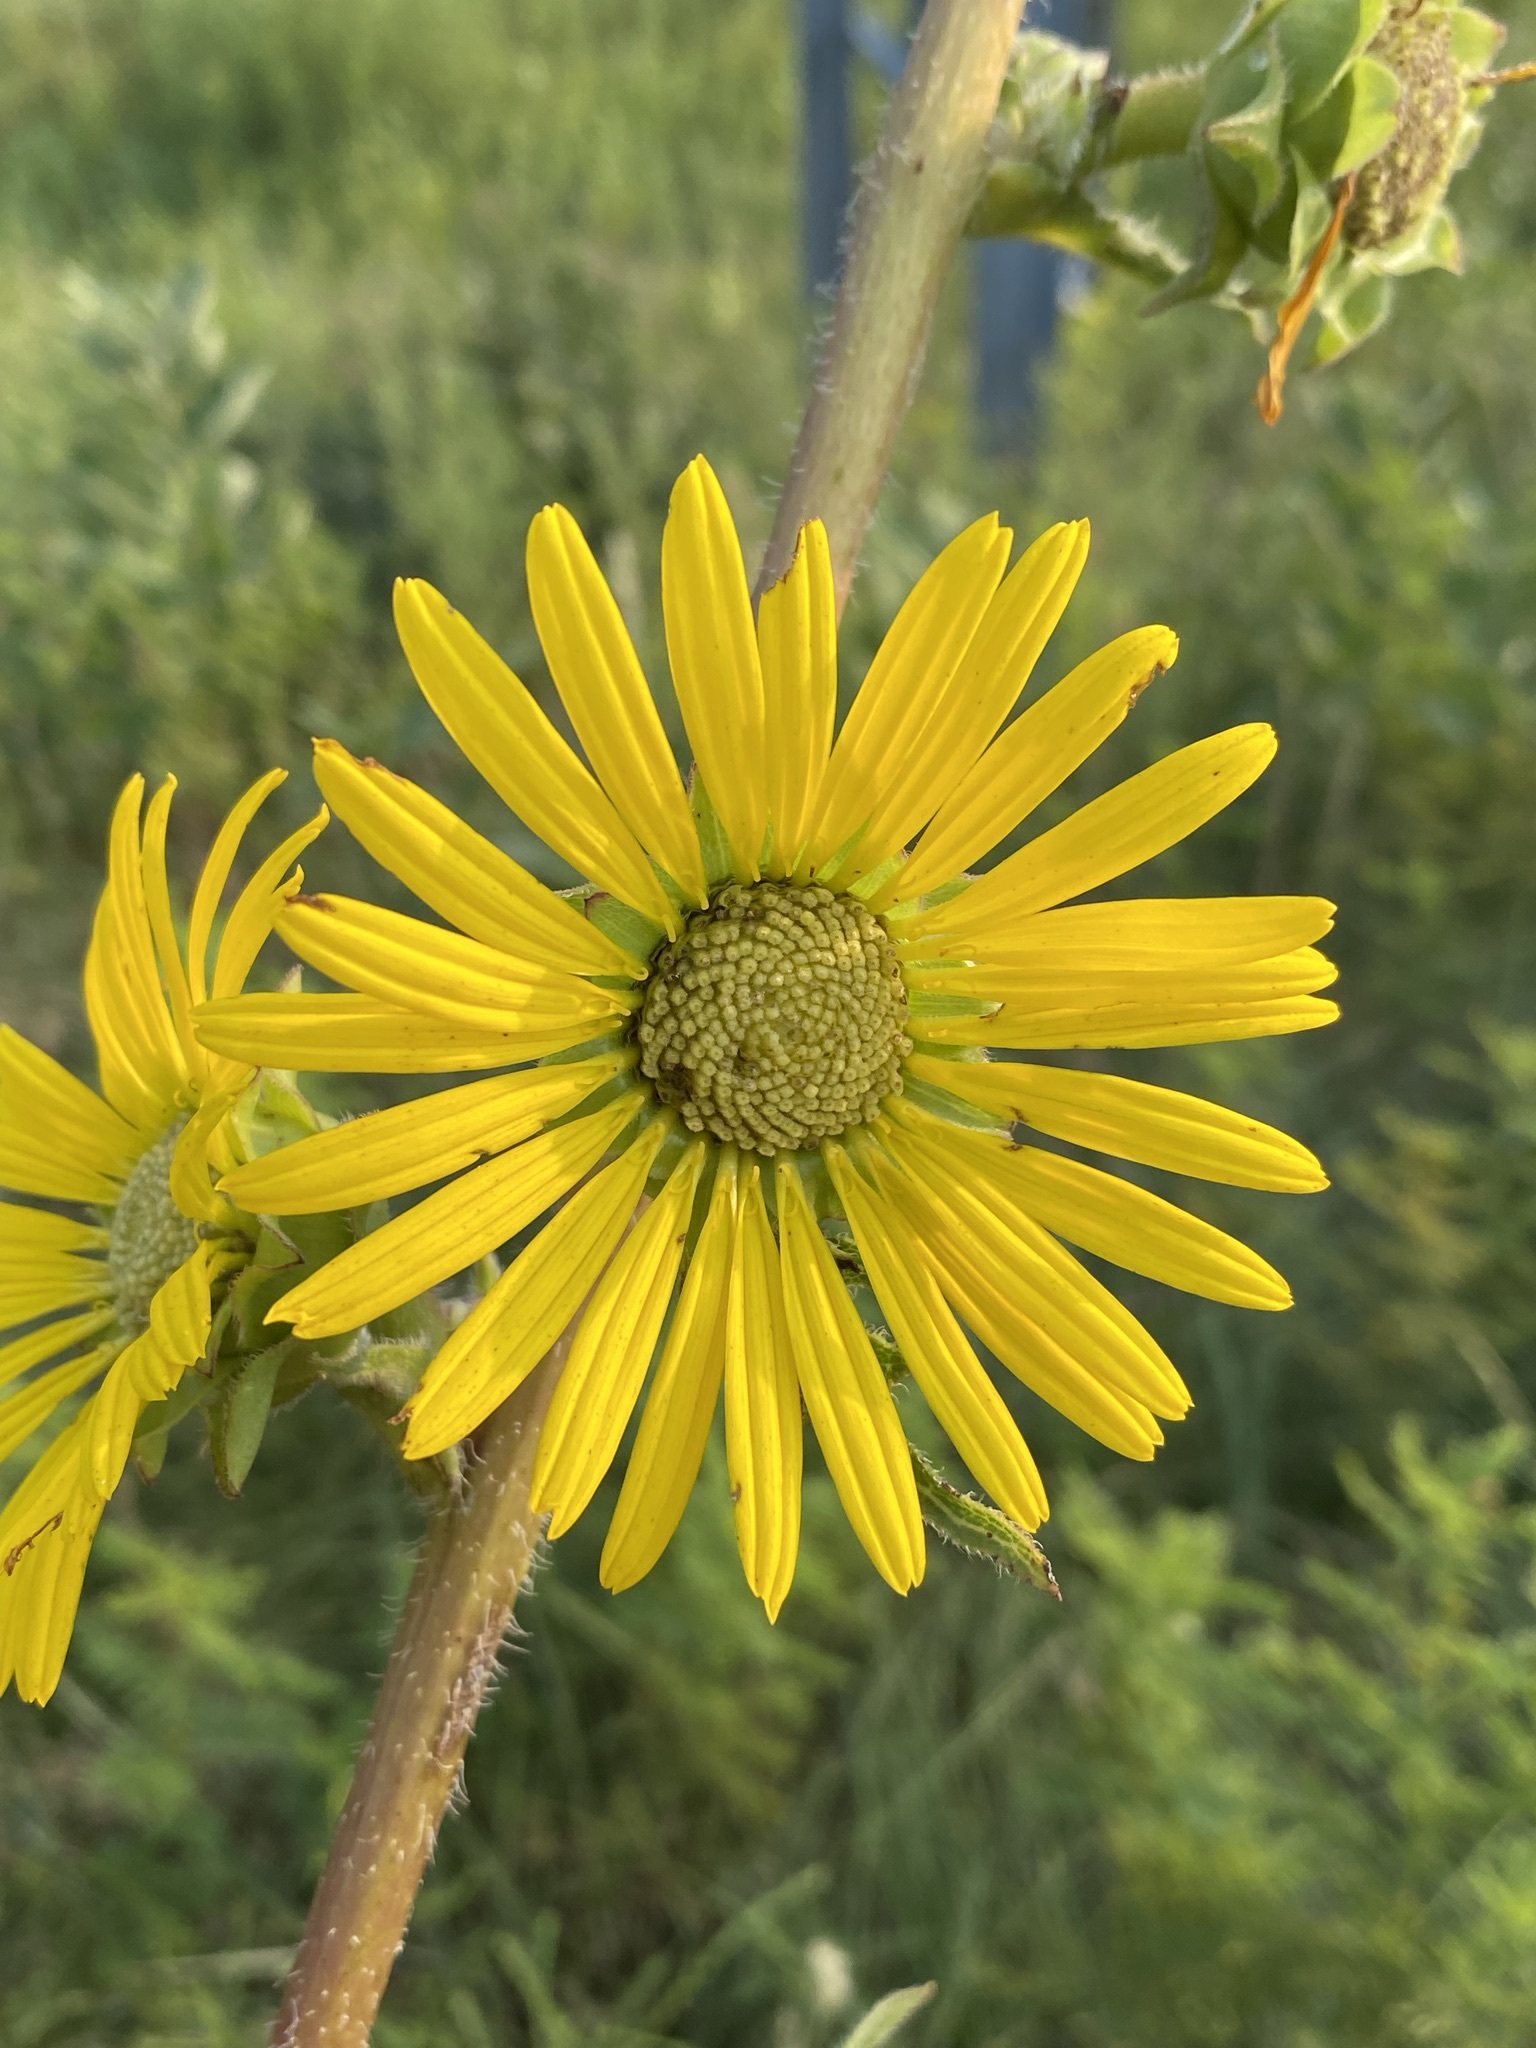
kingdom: Plantae
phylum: Tracheophyta
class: Magnoliopsida
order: Asterales
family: Asteraceae
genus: Silphium
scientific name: Silphium laciniatum
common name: Polarplant
